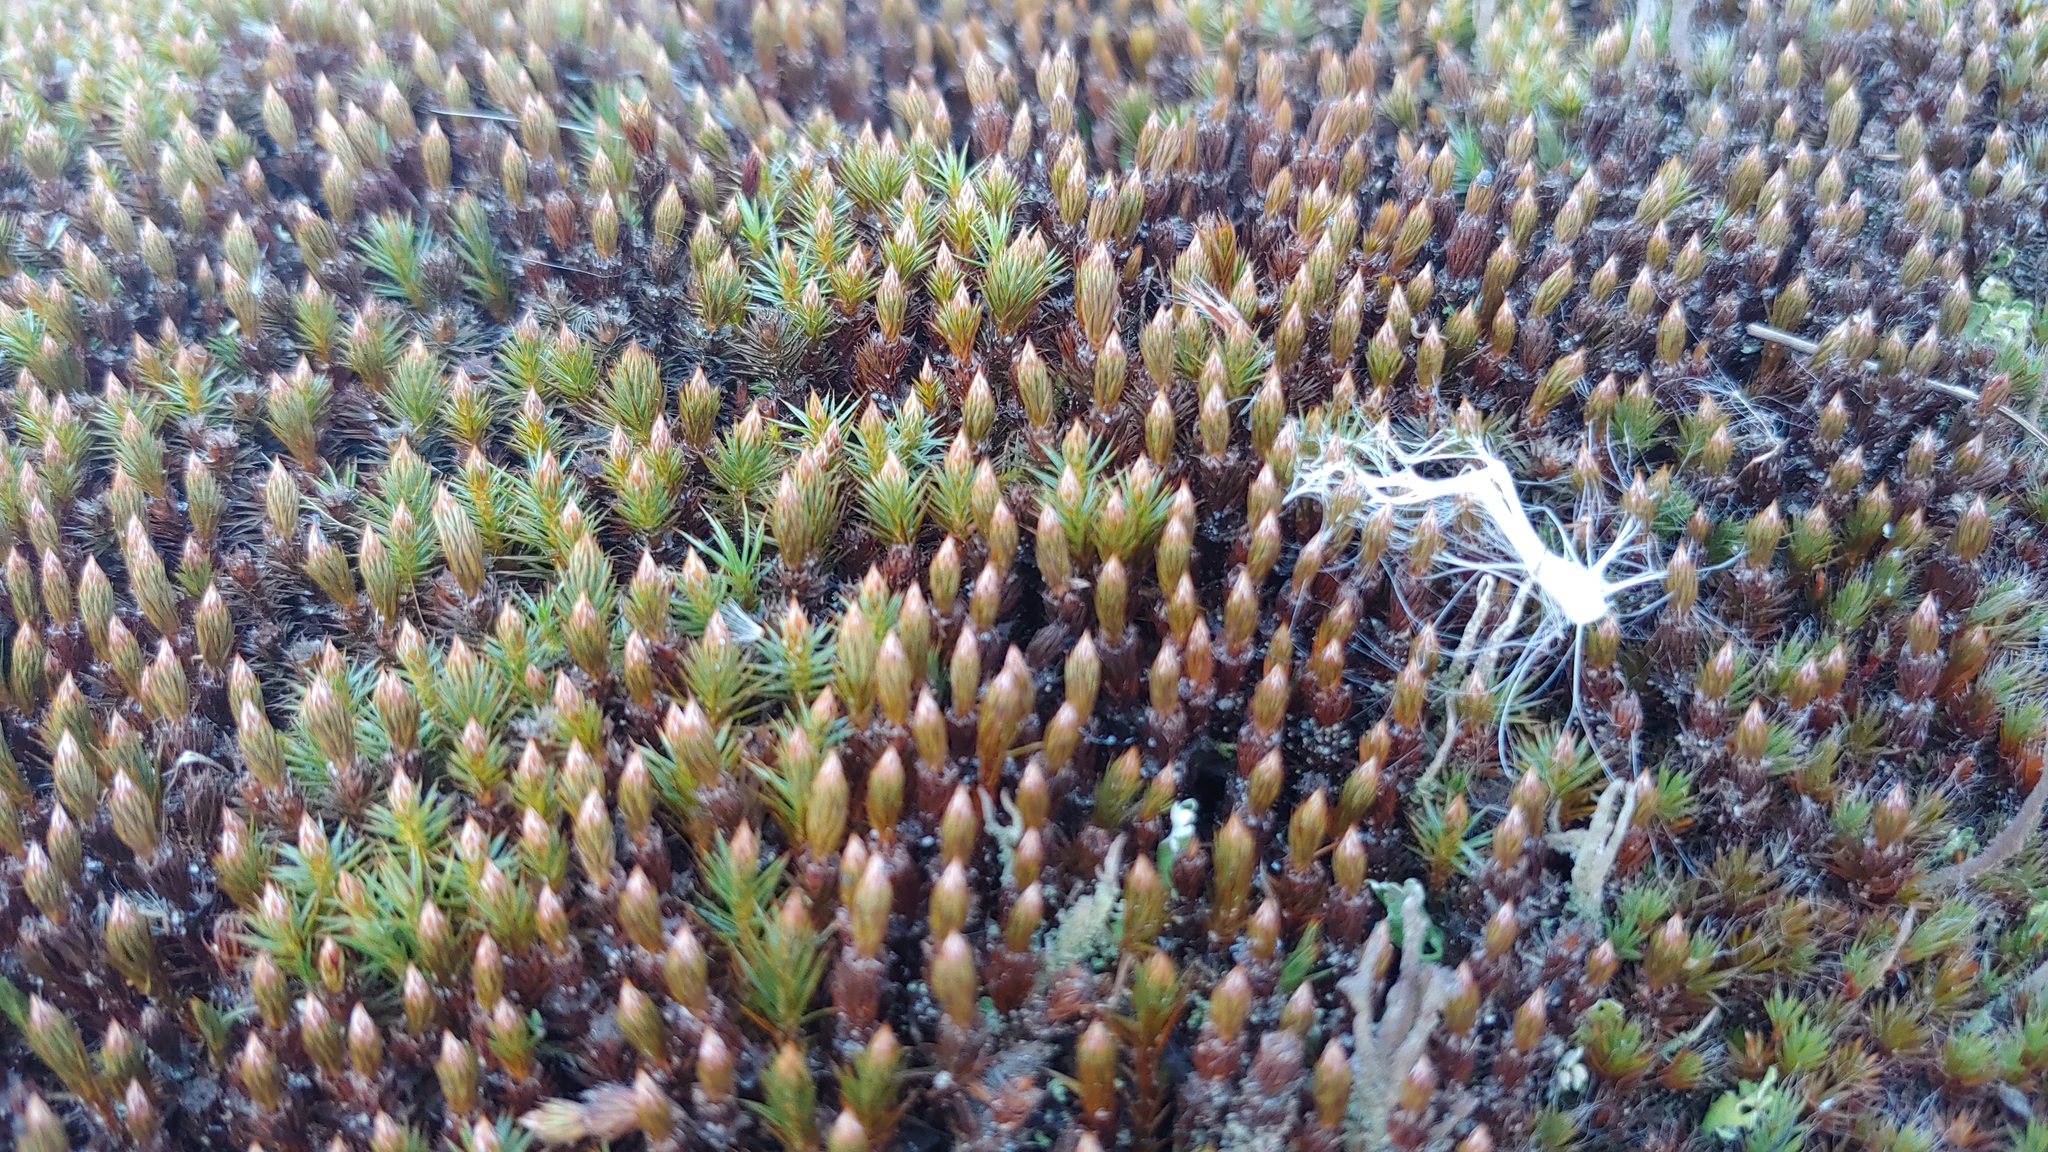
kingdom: Plantae
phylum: Bryophyta
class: Polytrichopsida
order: Polytrichales
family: Polytrichaceae
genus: Polytrichum
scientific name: Polytrichum juniperinum
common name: Juniper haircap moss
